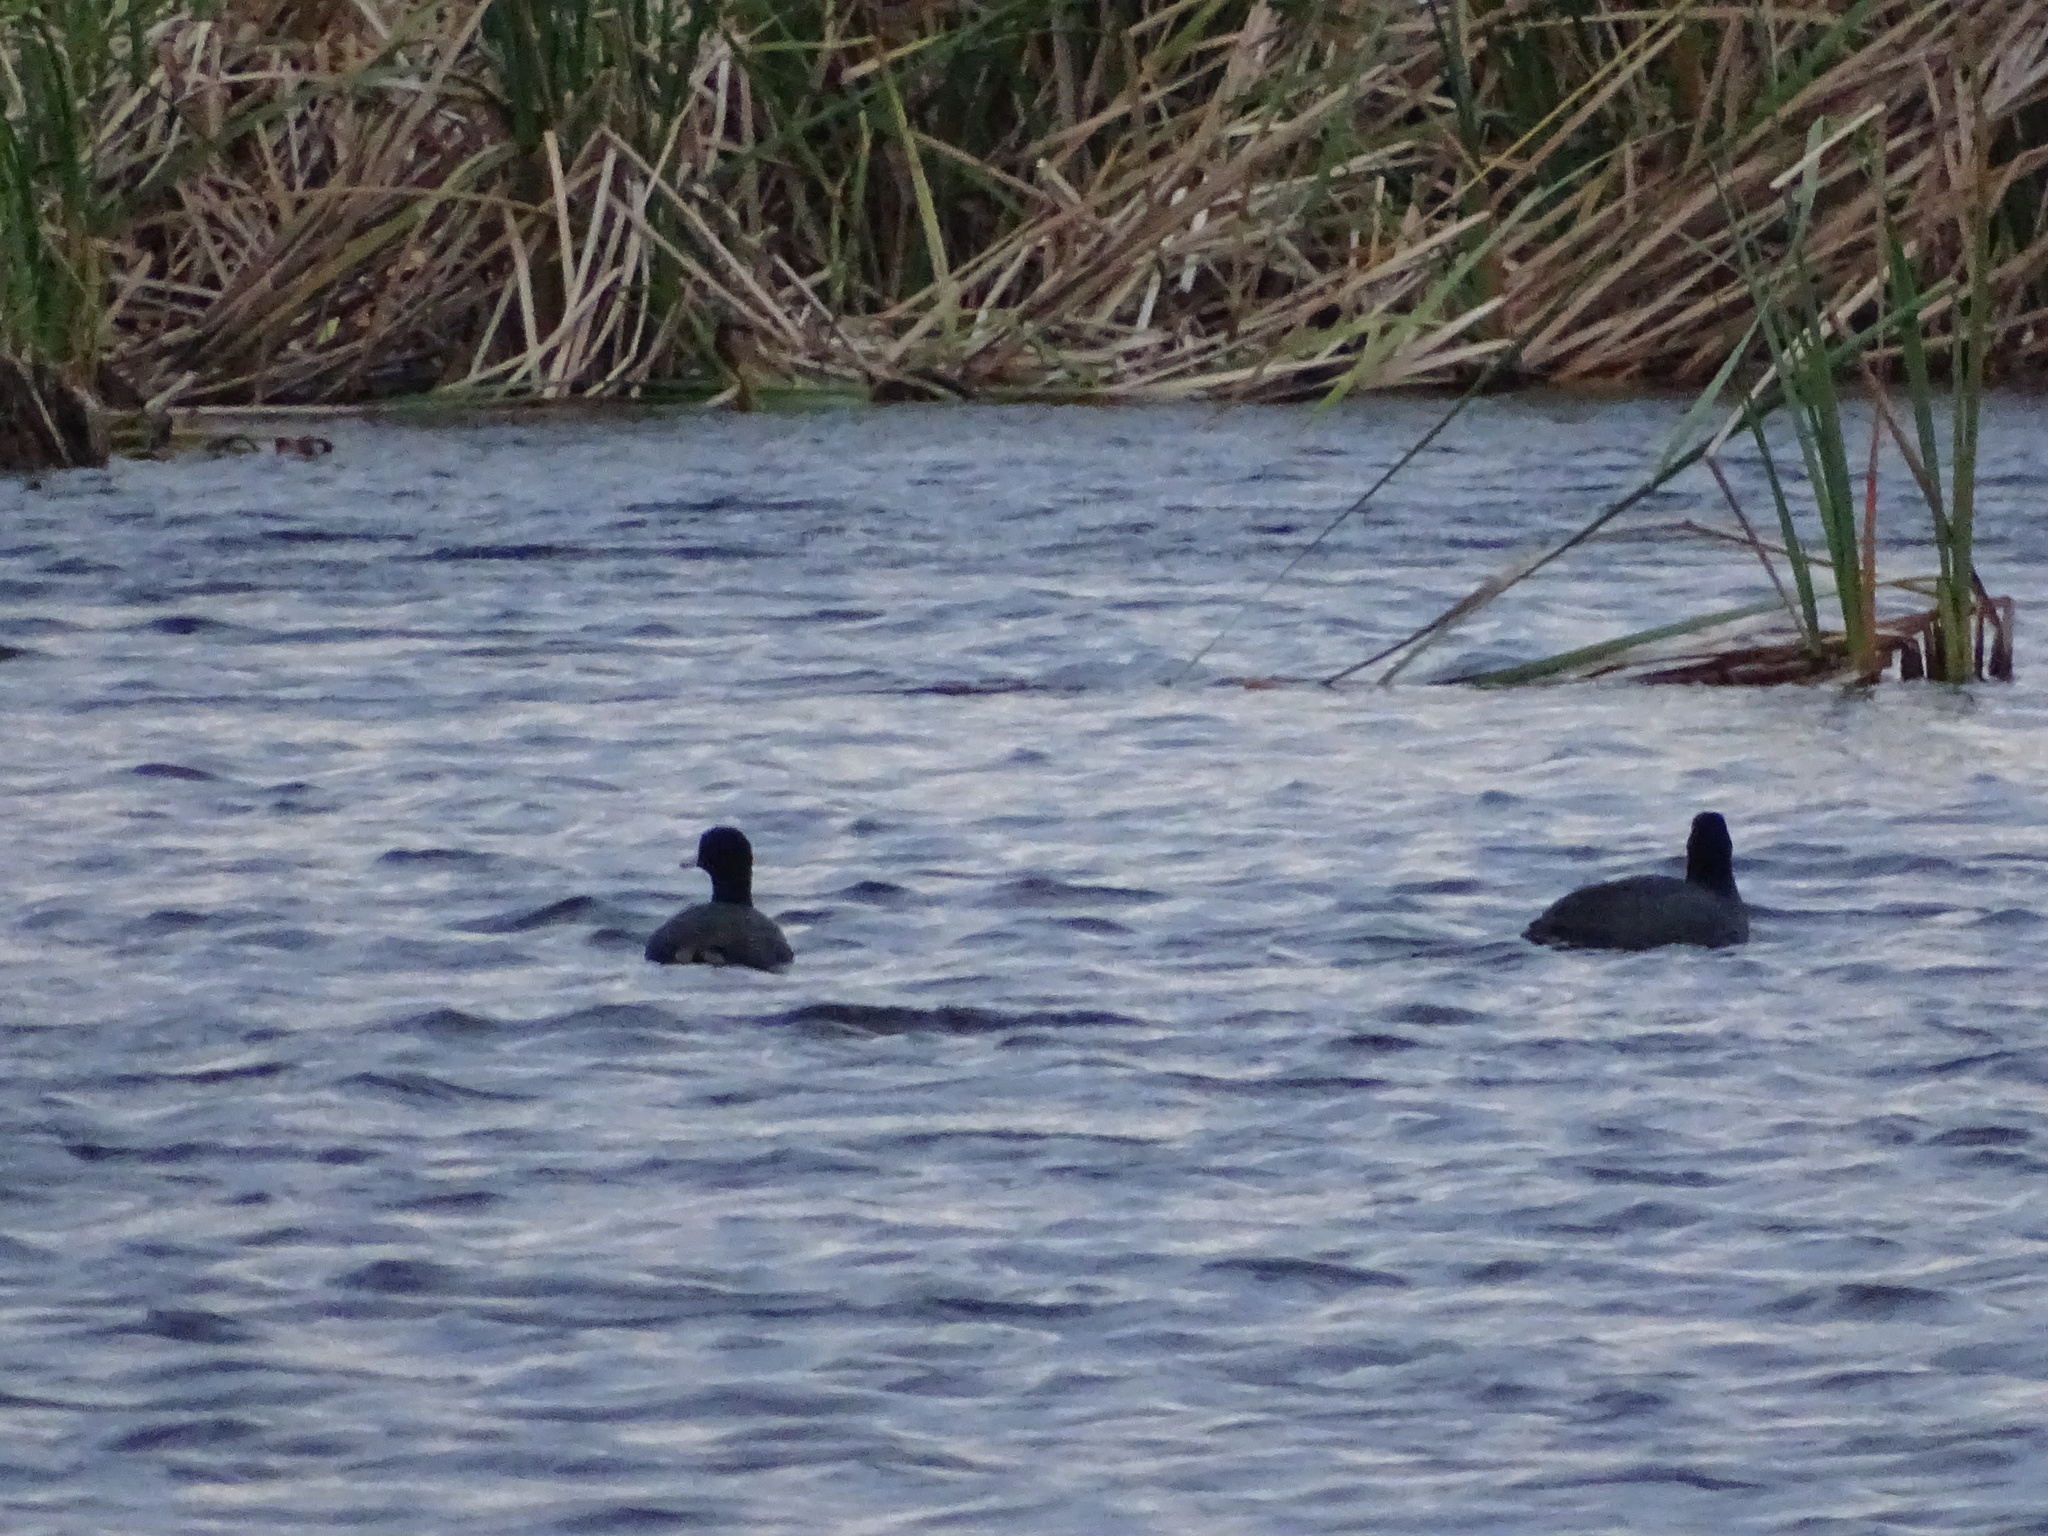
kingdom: Animalia
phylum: Chordata
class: Aves
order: Gruiformes
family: Rallidae
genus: Fulica
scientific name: Fulica americana
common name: American coot
